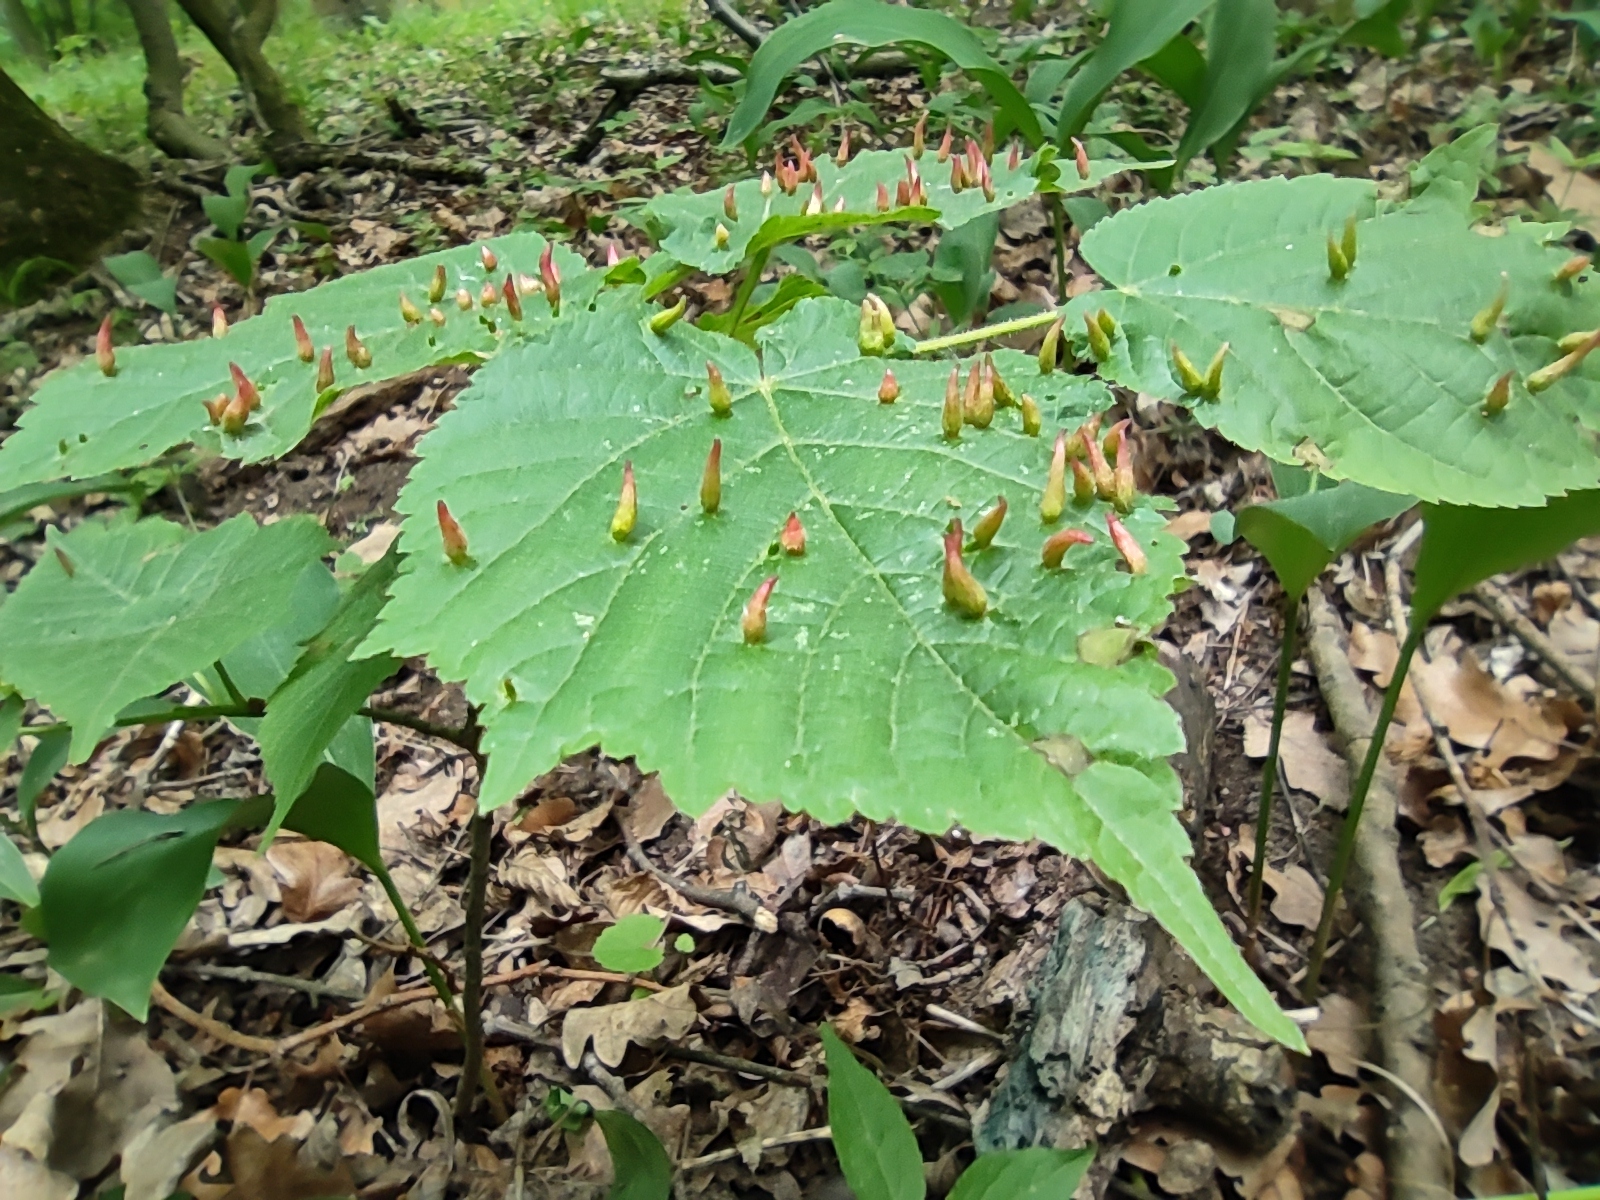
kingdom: Animalia
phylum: Arthropoda
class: Arachnida
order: Trombidiformes
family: Eriophyidae
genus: Eriophyes
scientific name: Eriophyes tiliae
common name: Red nail gall mite
